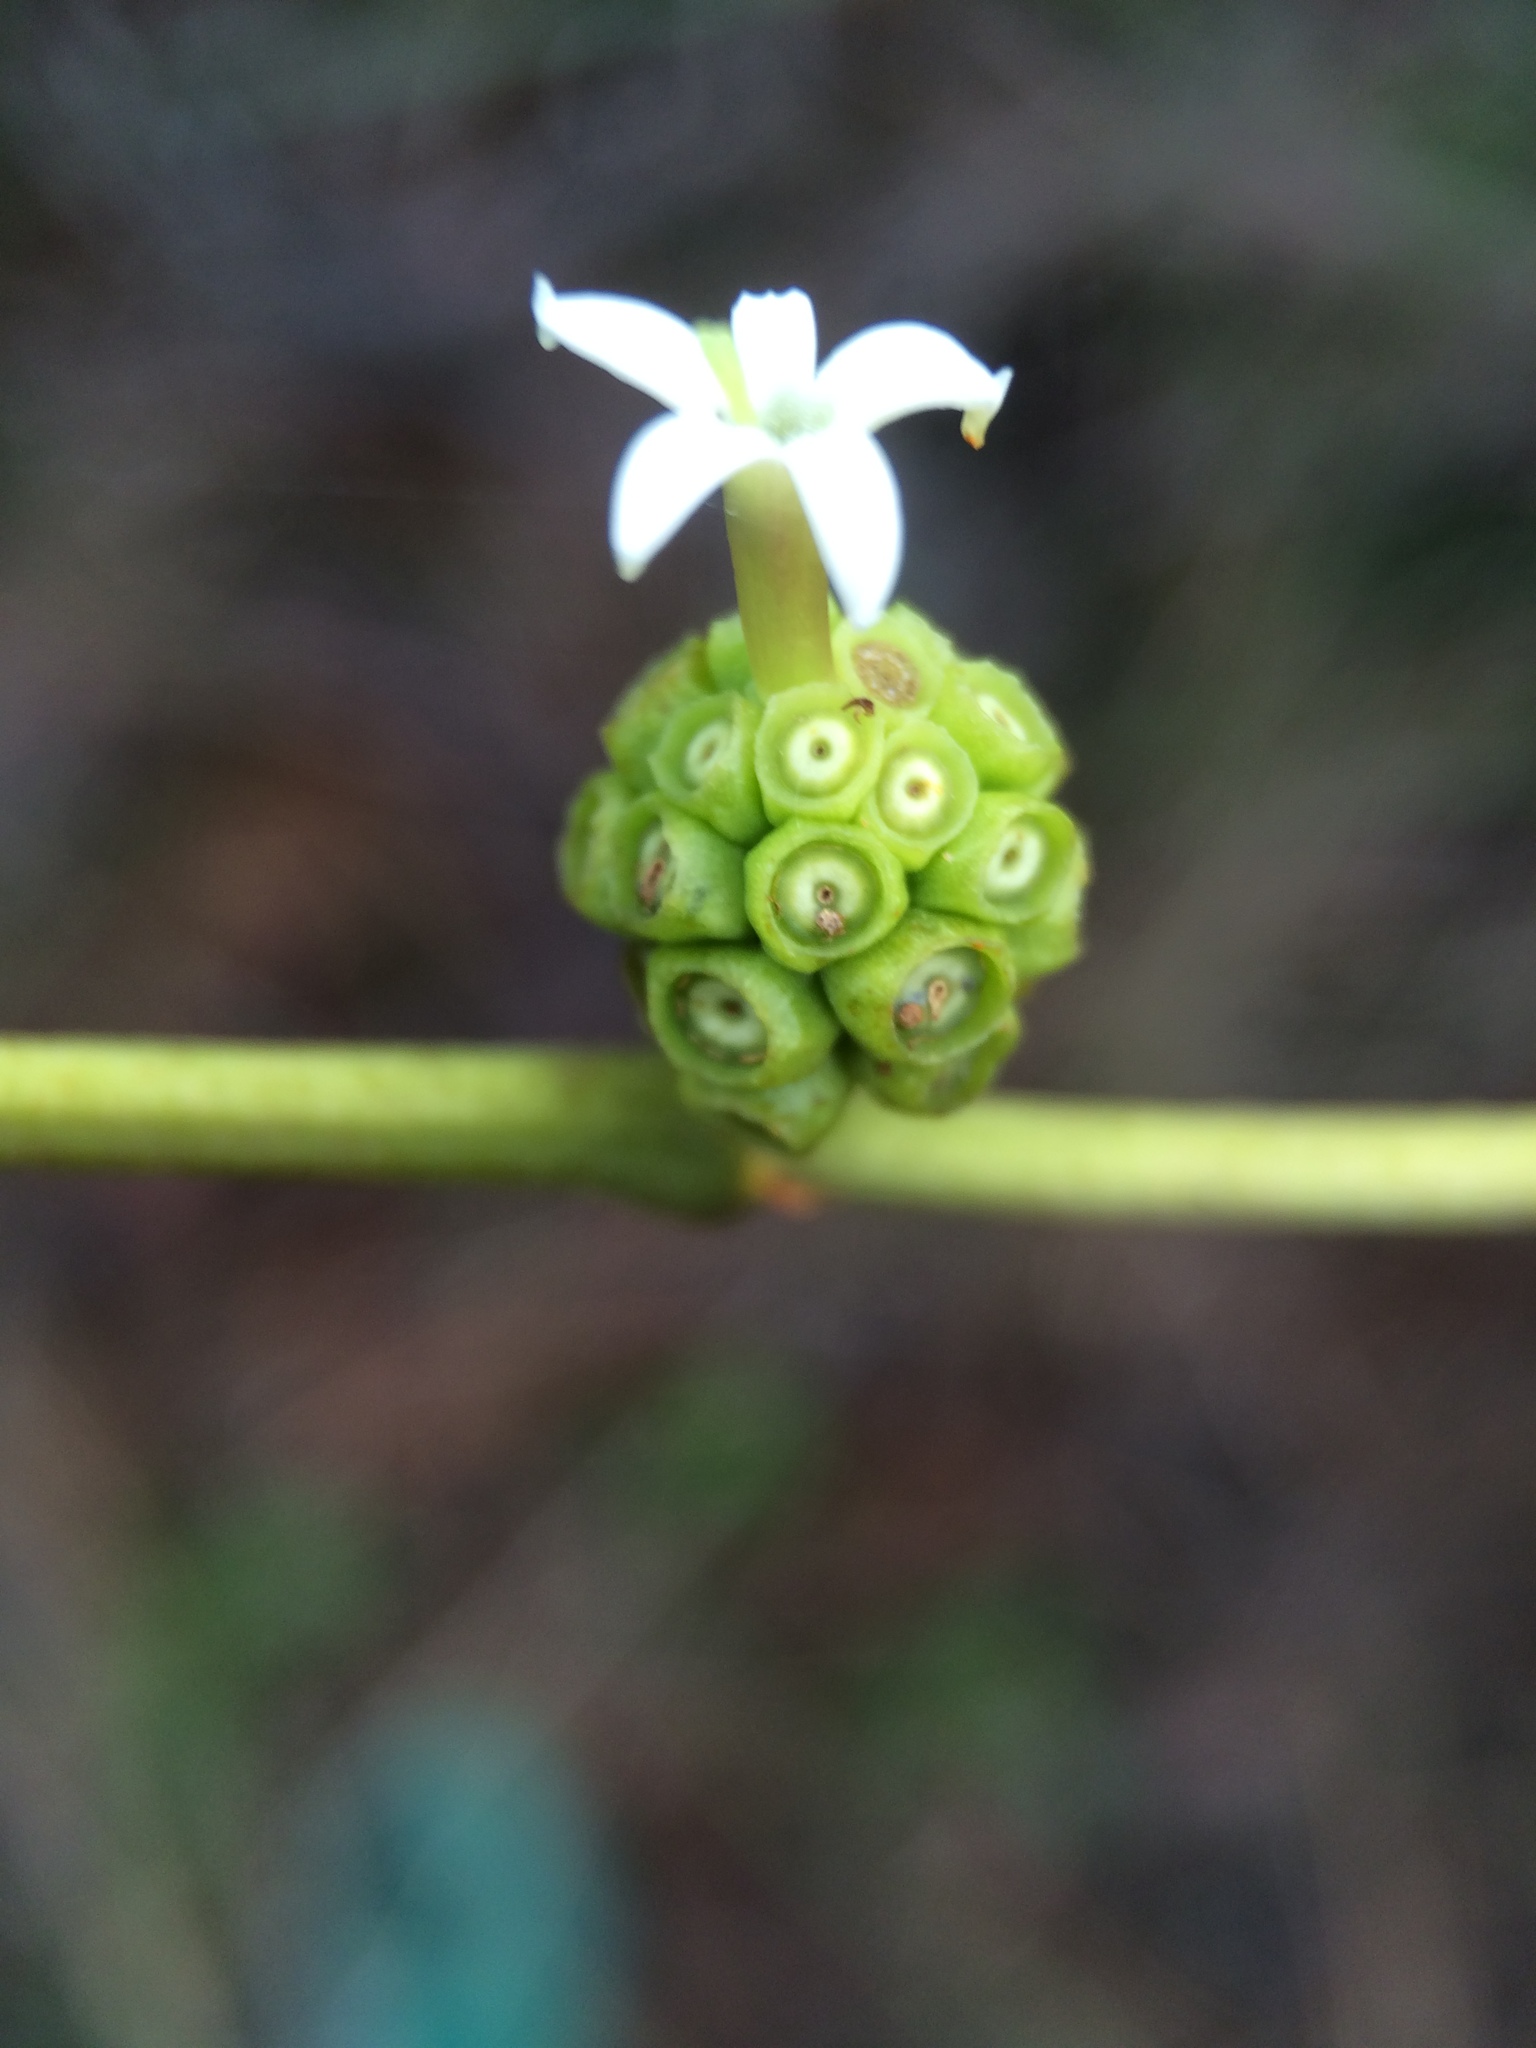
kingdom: Plantae
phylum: Tracheophyta
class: Magnoliopsida
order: Gentianales
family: Rubiaceae
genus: Morinda
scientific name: Morinda royoc
